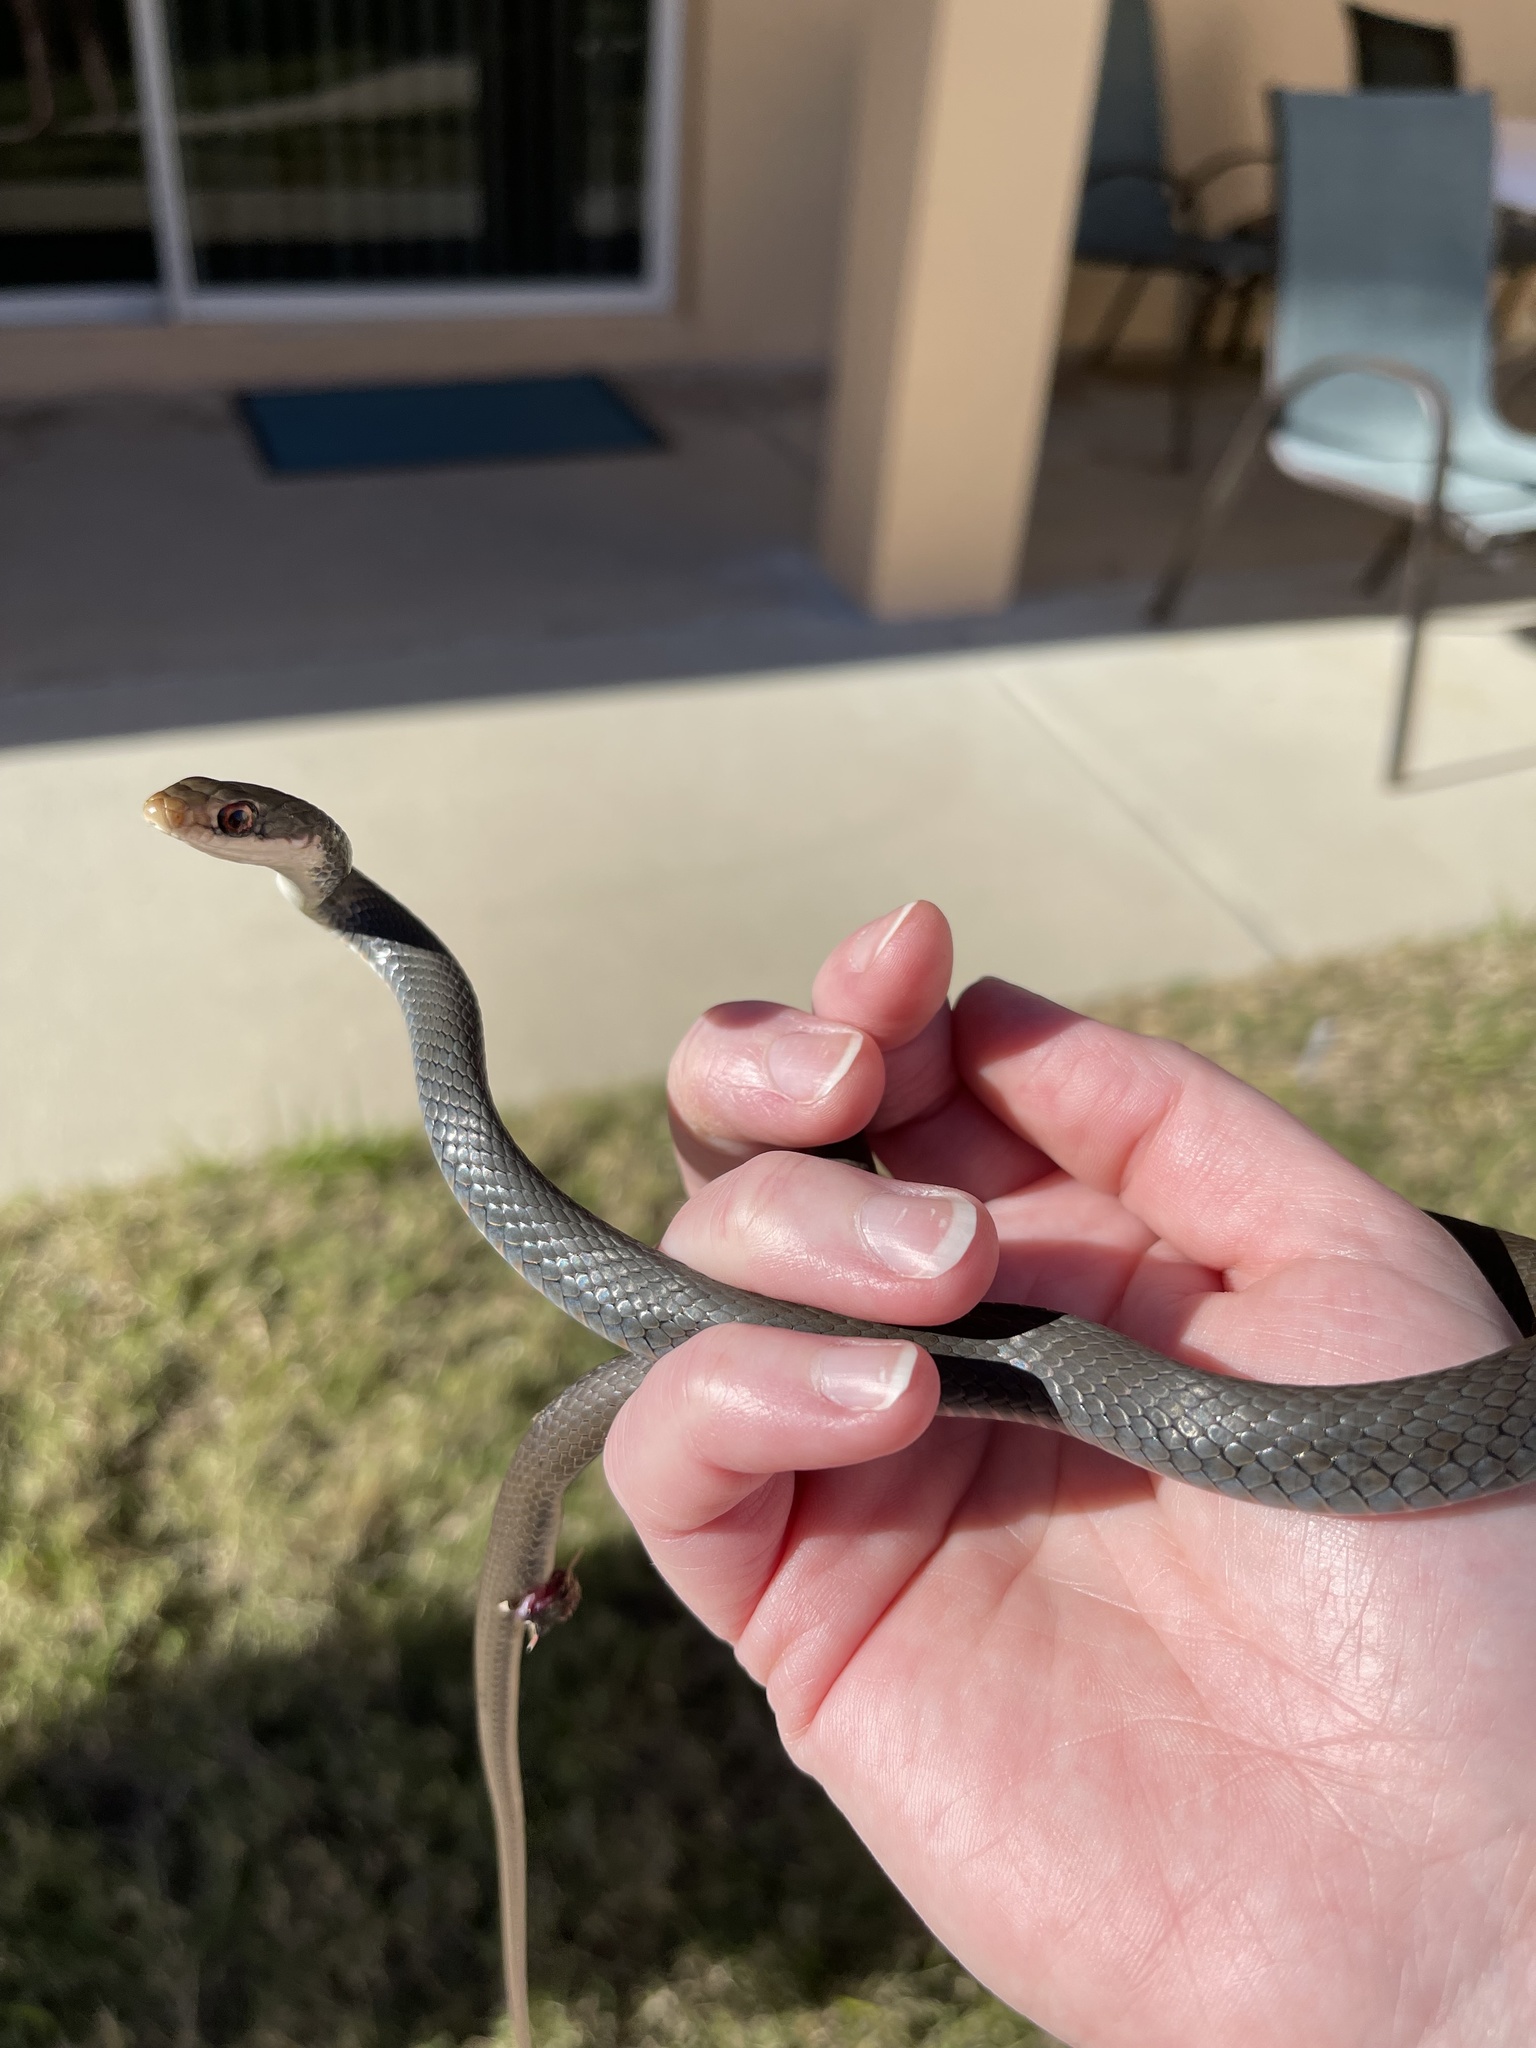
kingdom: Animalia
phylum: Chordata
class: Squamata
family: Colubridae
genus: Coluber
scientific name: Coluber constrictor
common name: Eastern racer
